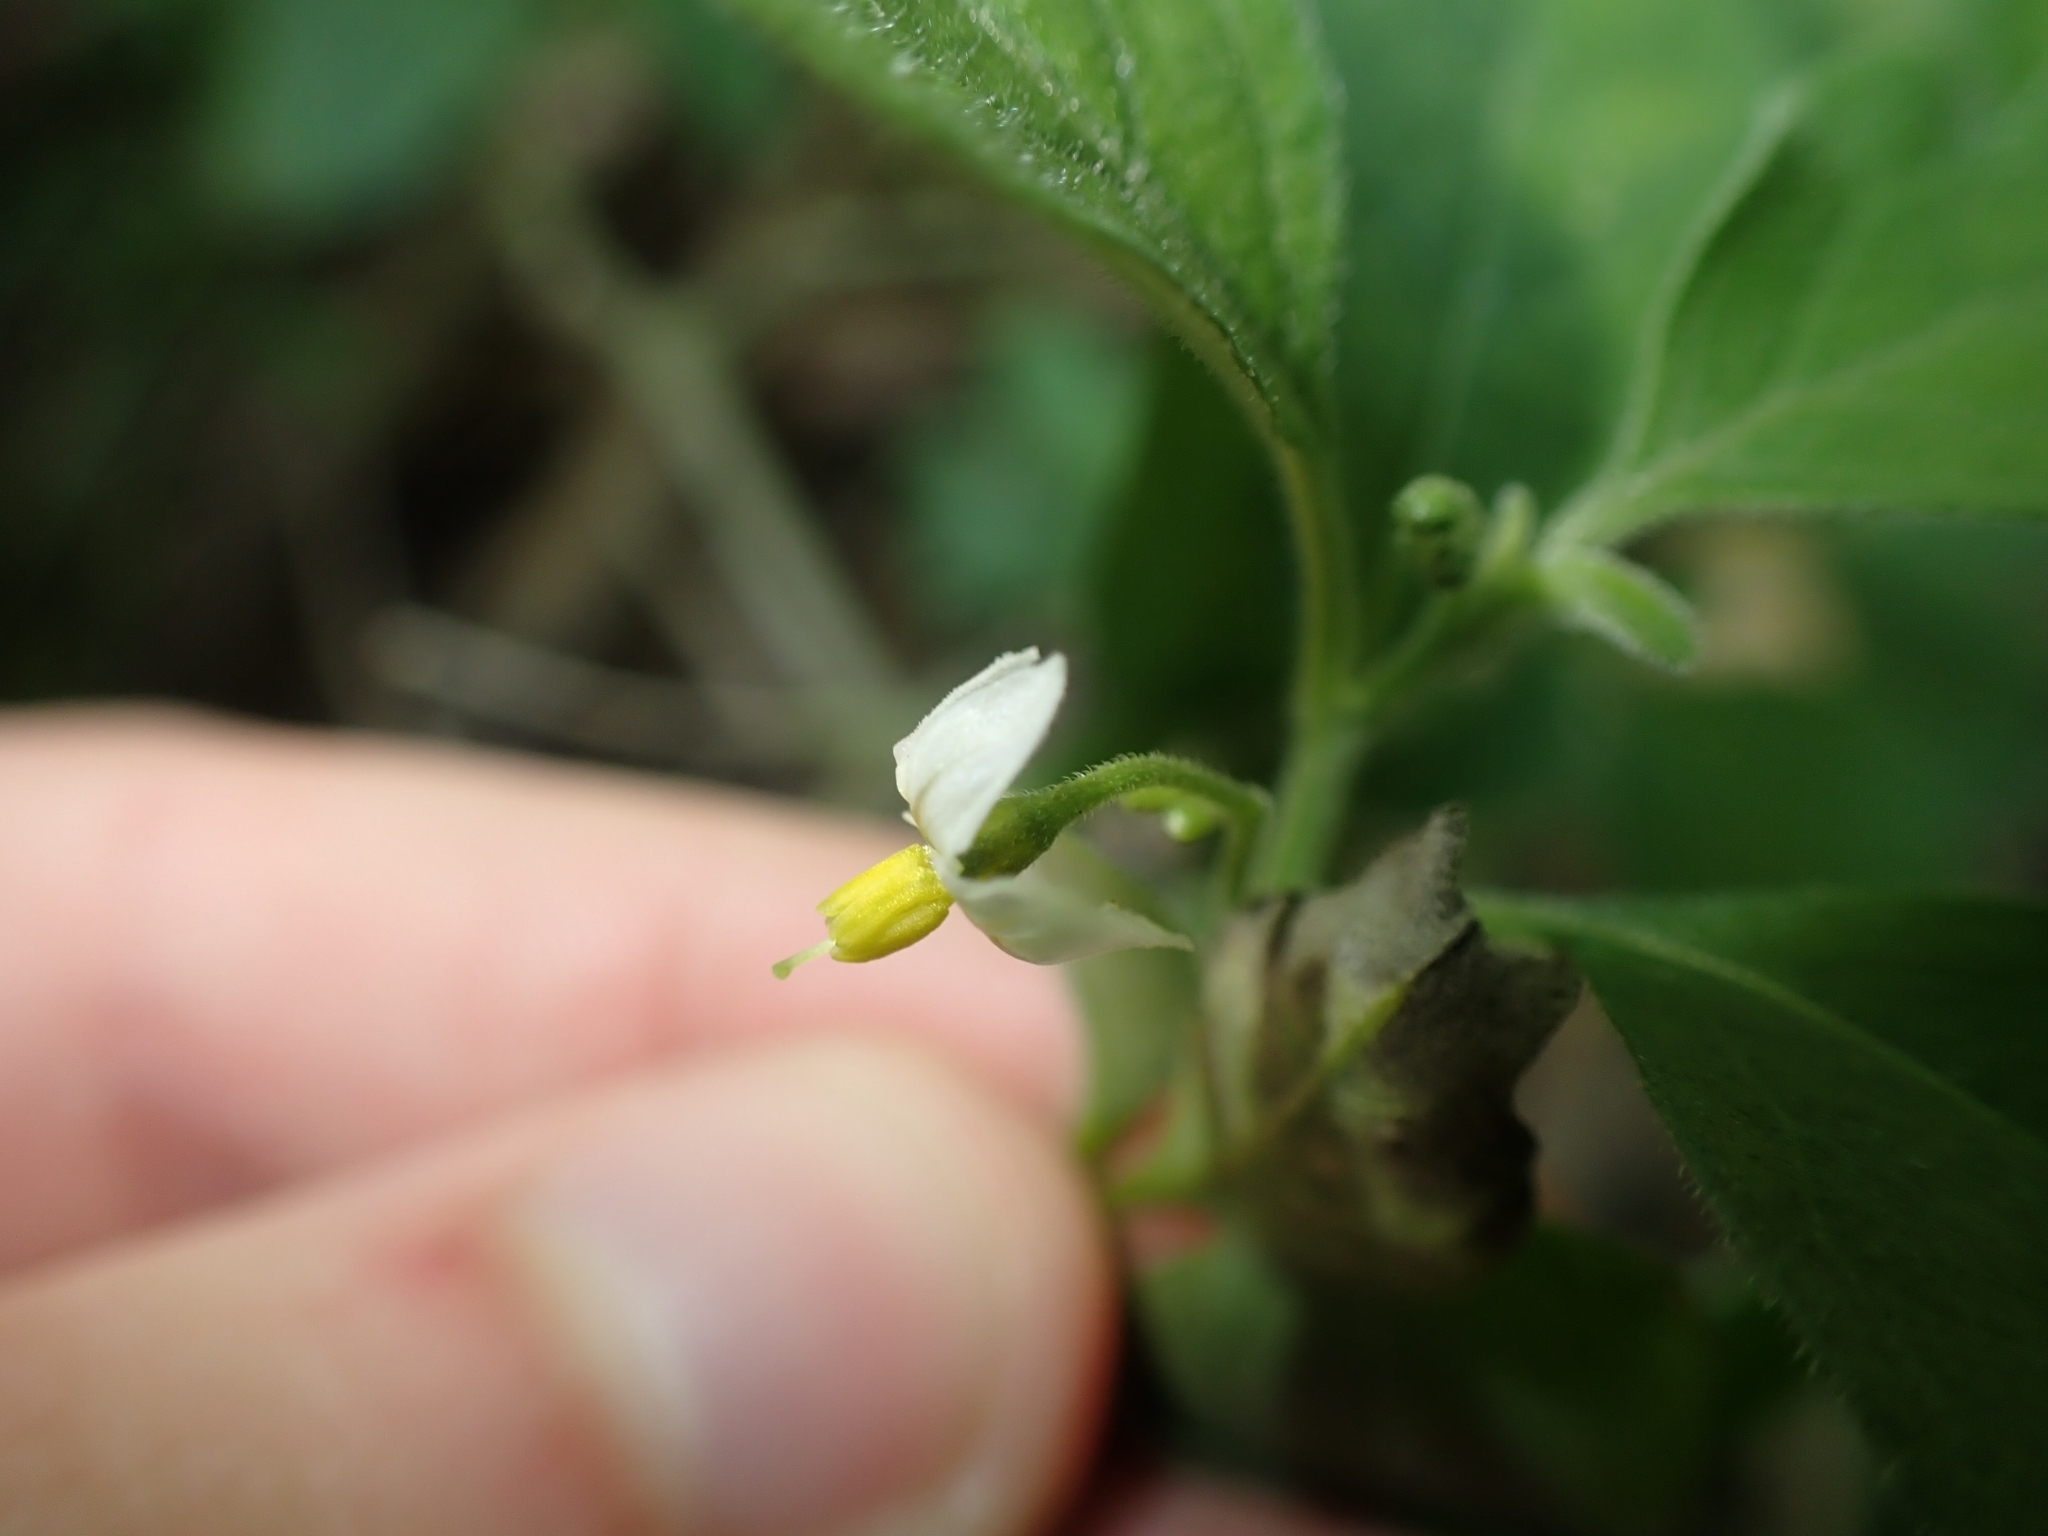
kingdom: Plantae
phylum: Tracheophyta
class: Magnoliopsida
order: Solanales
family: Solanaceae
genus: Solanum
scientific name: Solanum chenopodioides
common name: Tall nightshade
